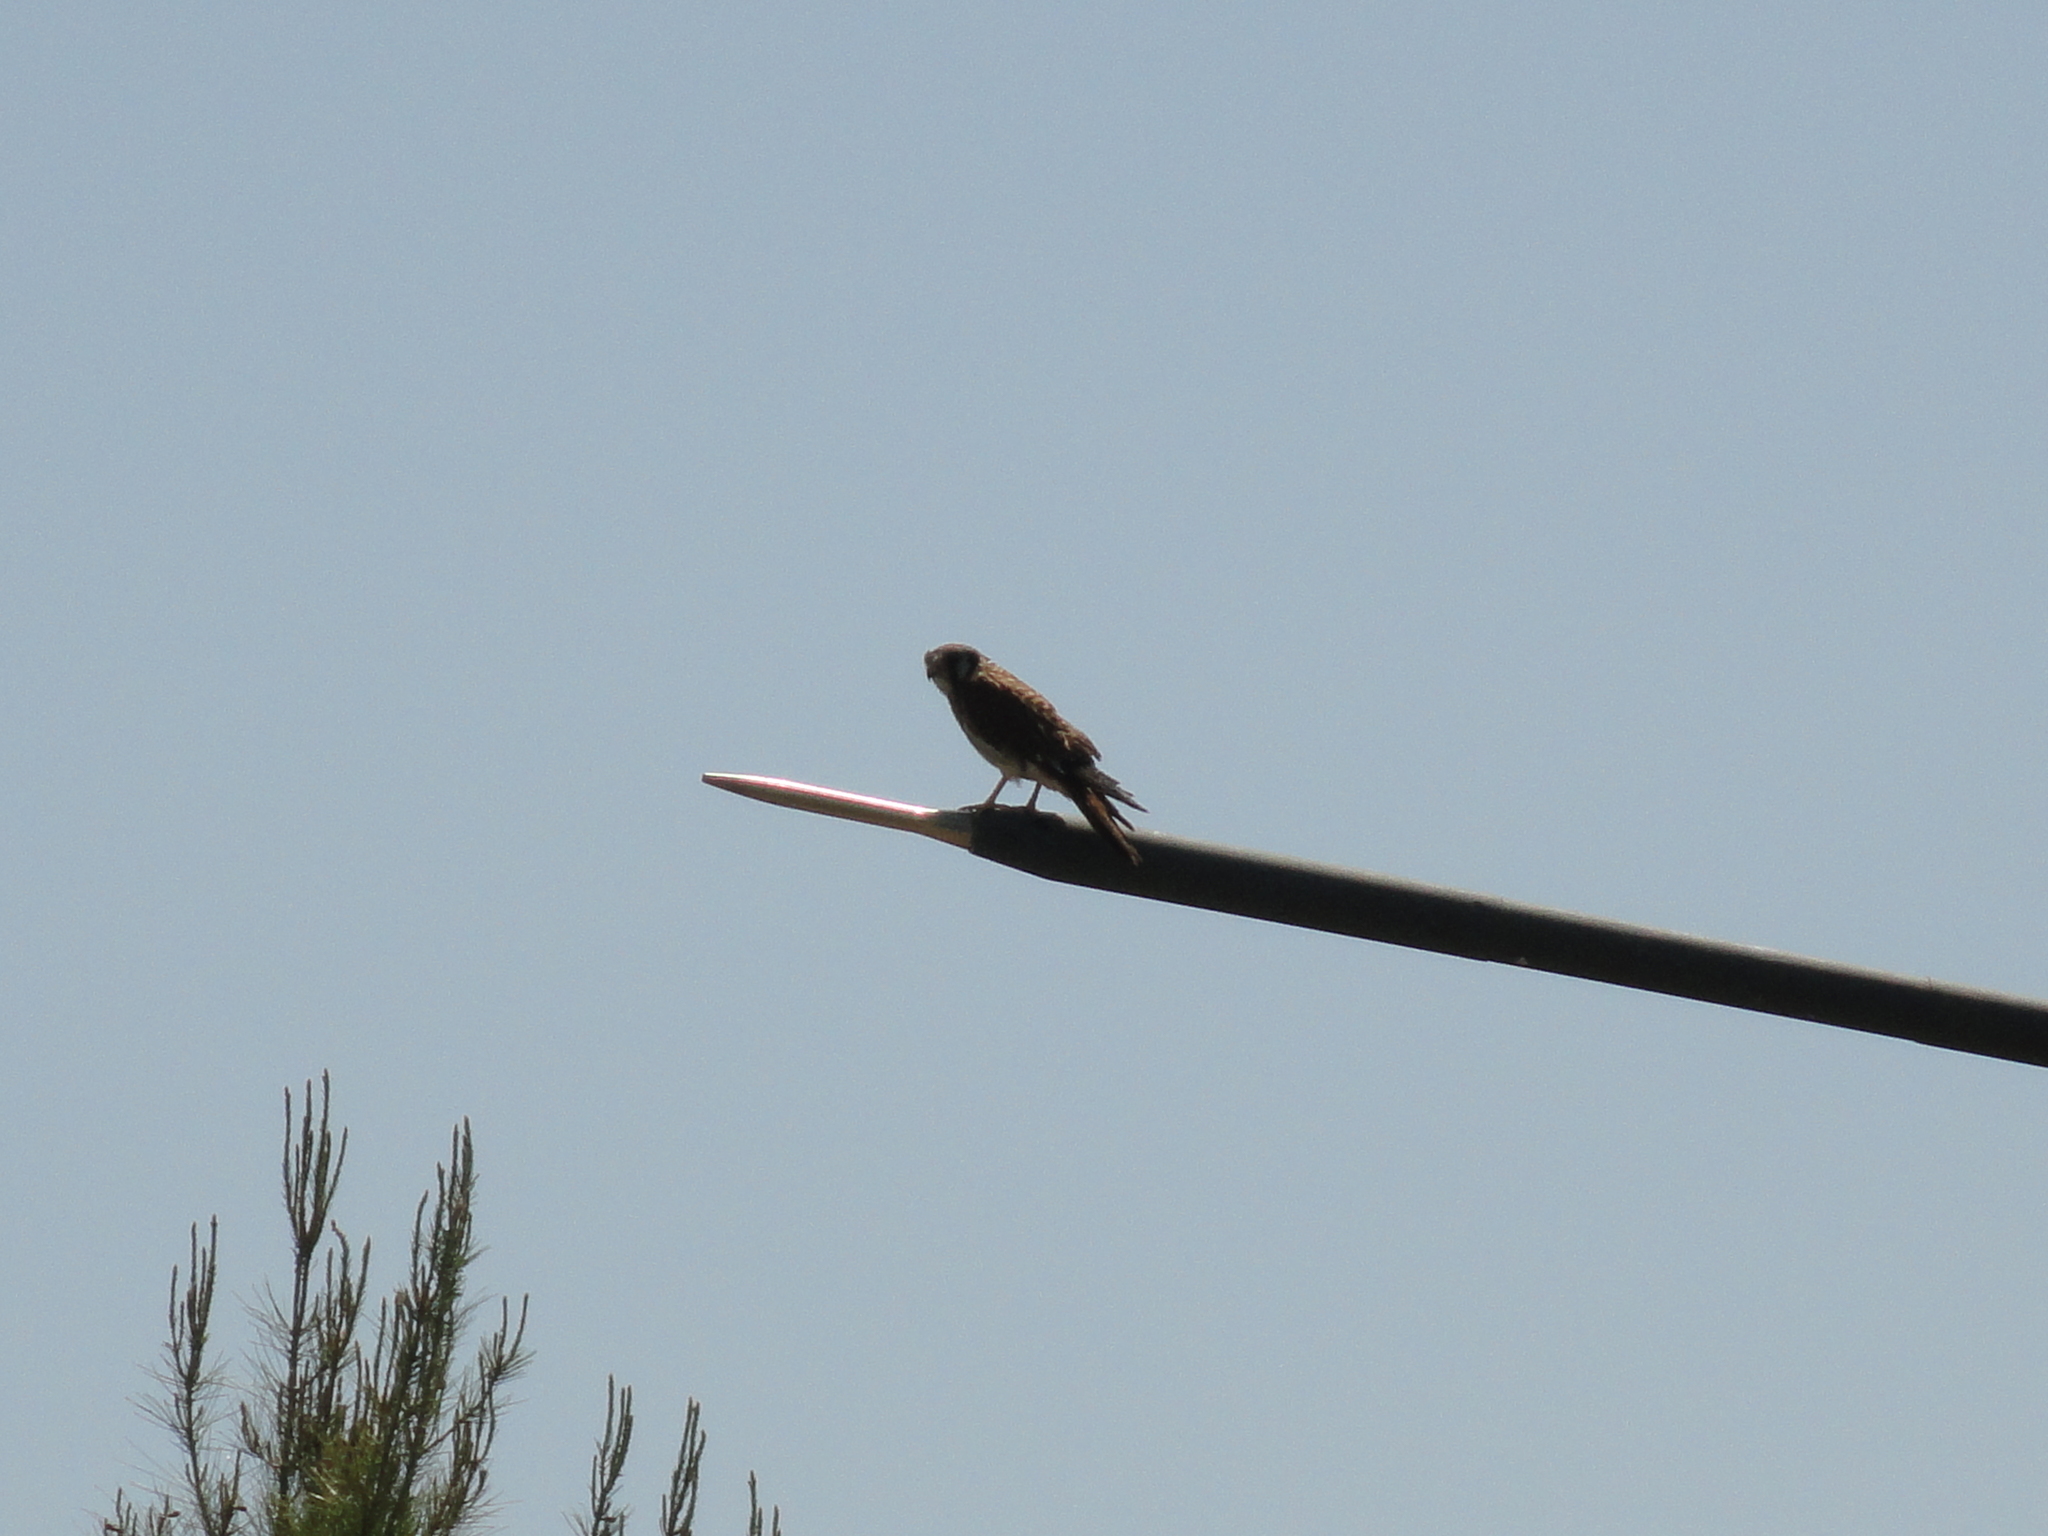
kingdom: Animalia
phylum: Chordata
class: Aves
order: Falconiformes
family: Falconidae
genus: Falco
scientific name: Falco sparverius
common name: American kestrel
